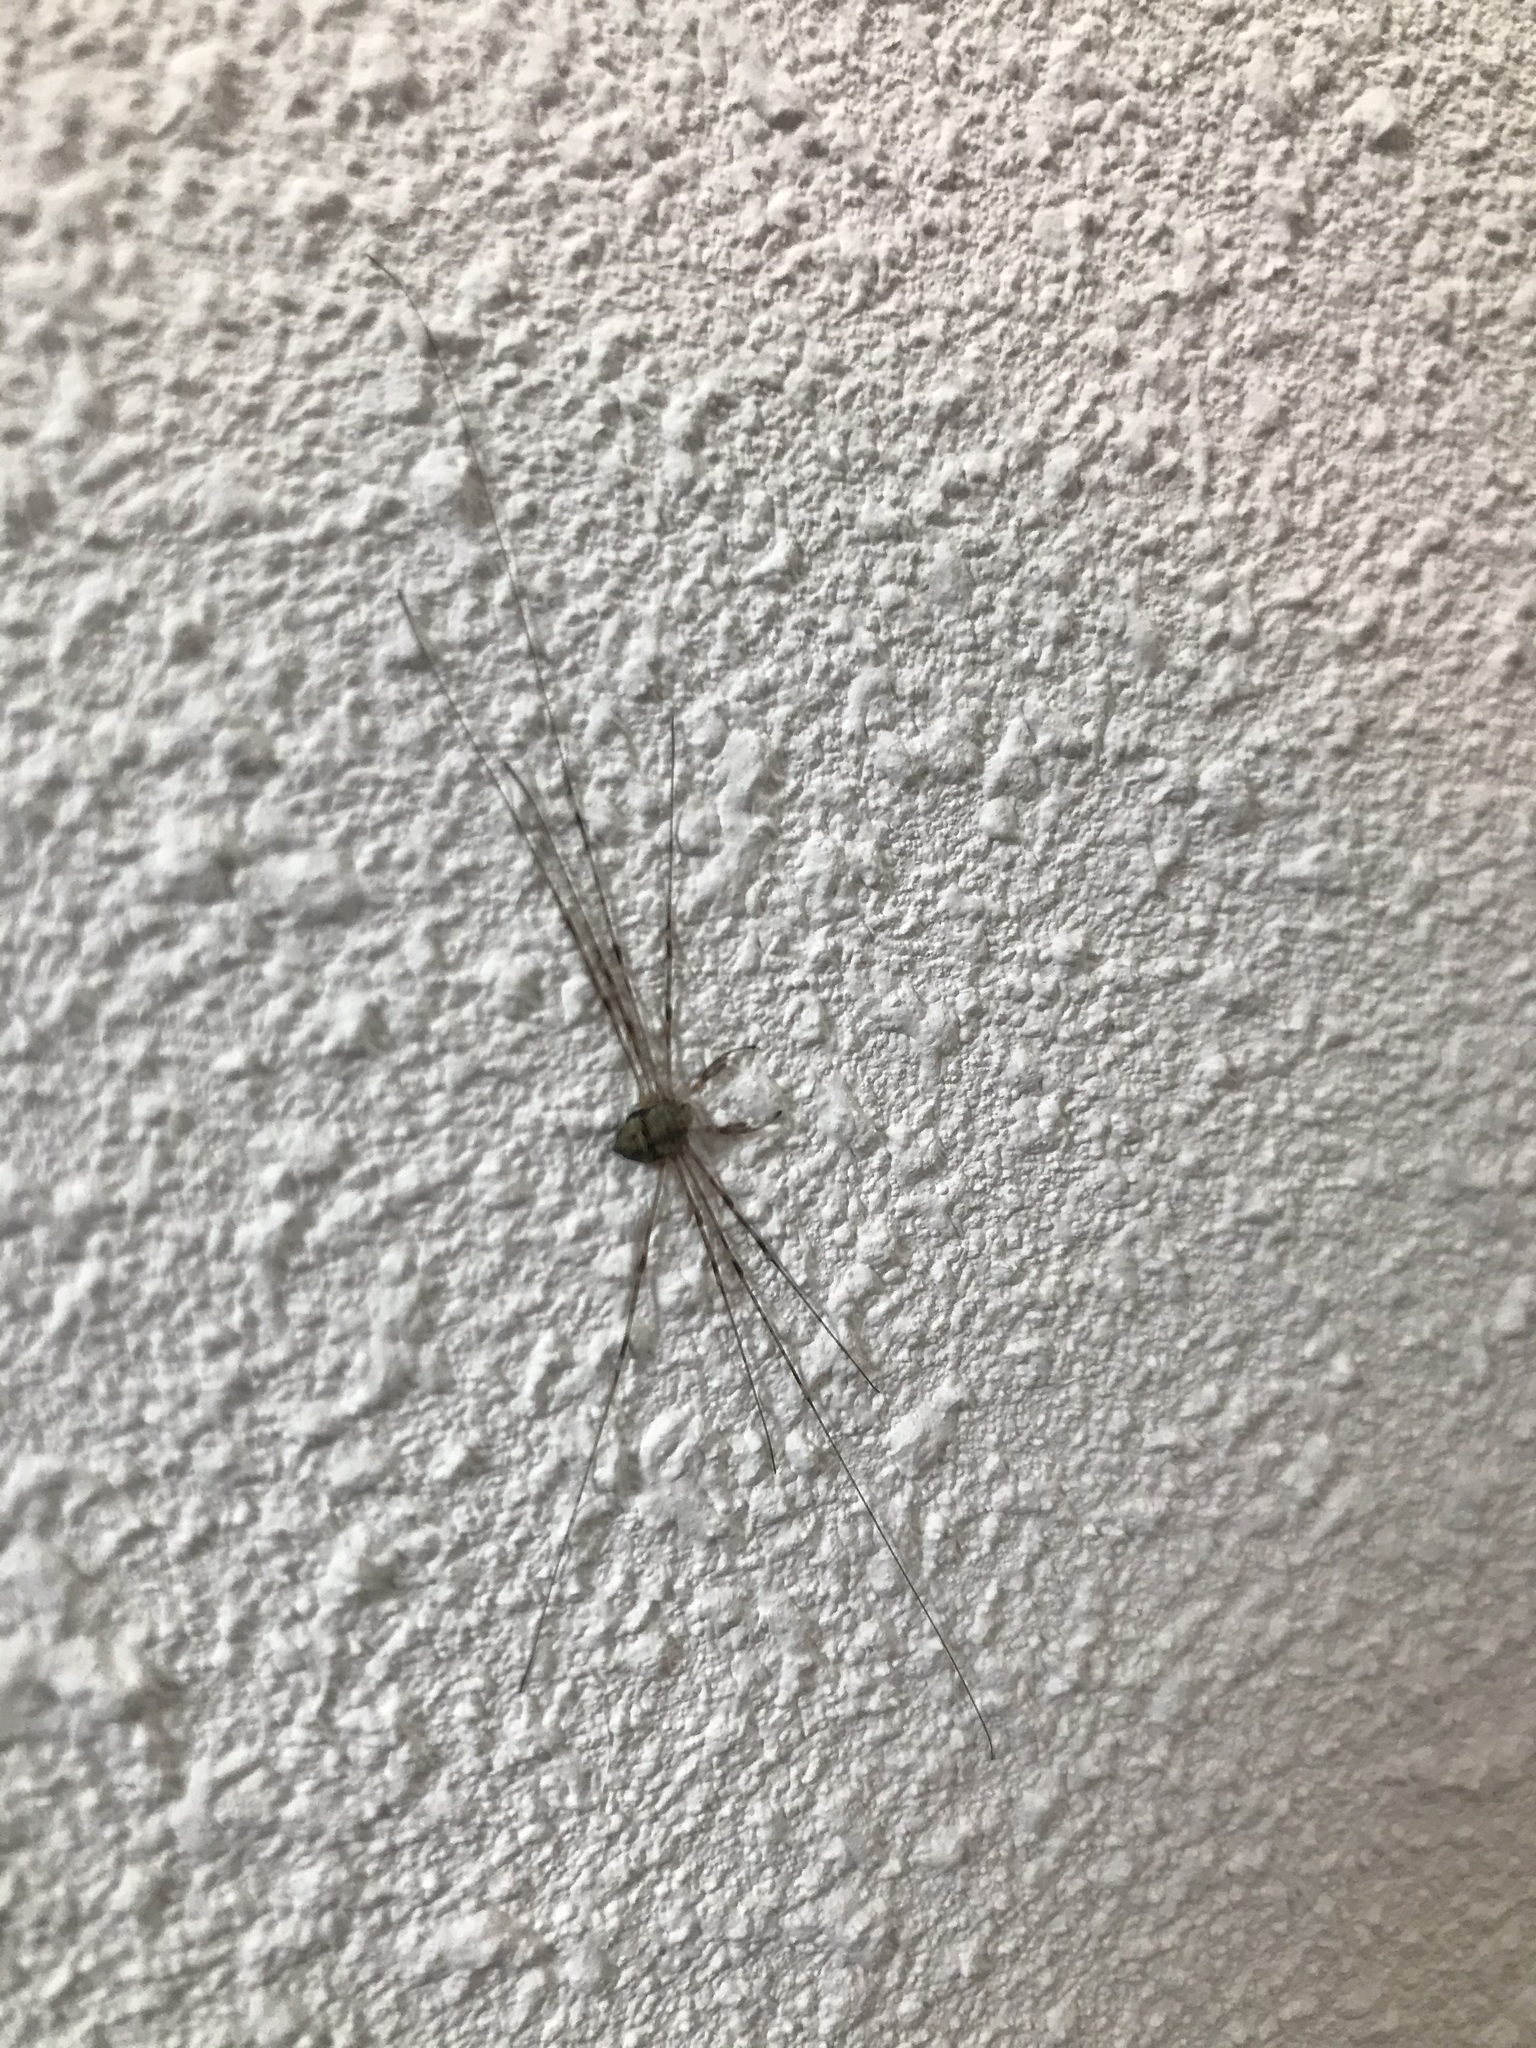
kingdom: Animalia
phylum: Arthropoda
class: Arachnida
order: Opiliones
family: Phalangiidae
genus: Dicranopalpus
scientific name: Dicranopalpus ramosus
